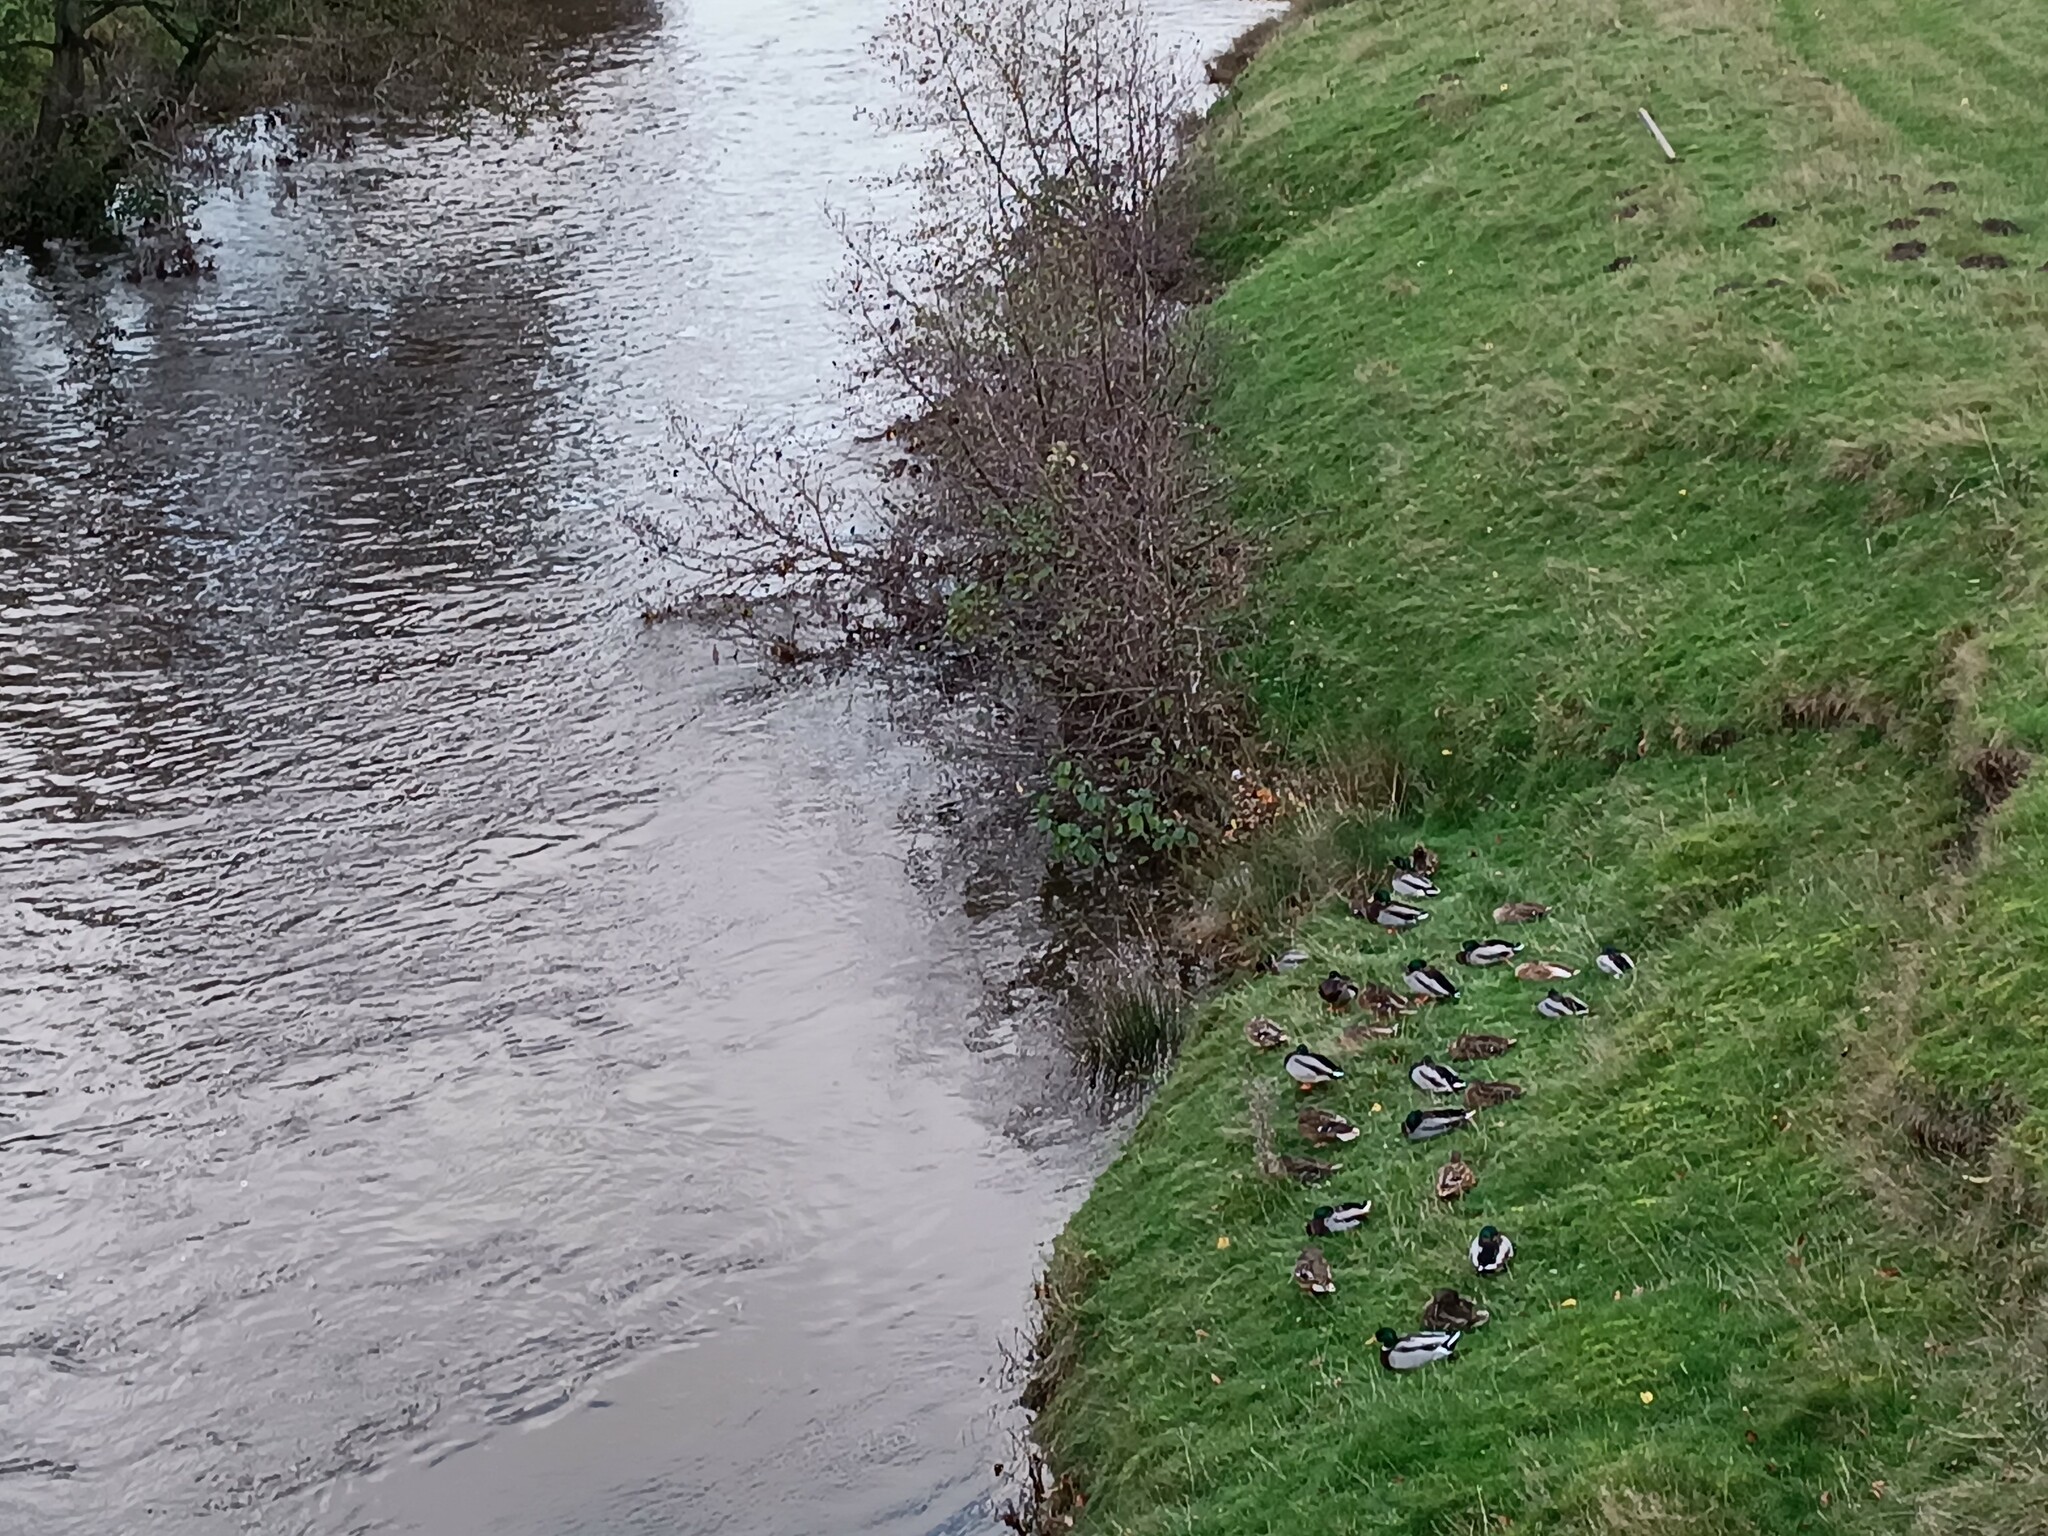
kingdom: Animalia
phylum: Chordata
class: Aves
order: Anseriformes
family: Anatidae
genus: Anas
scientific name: Anas platyrhynchos
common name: Mallard
